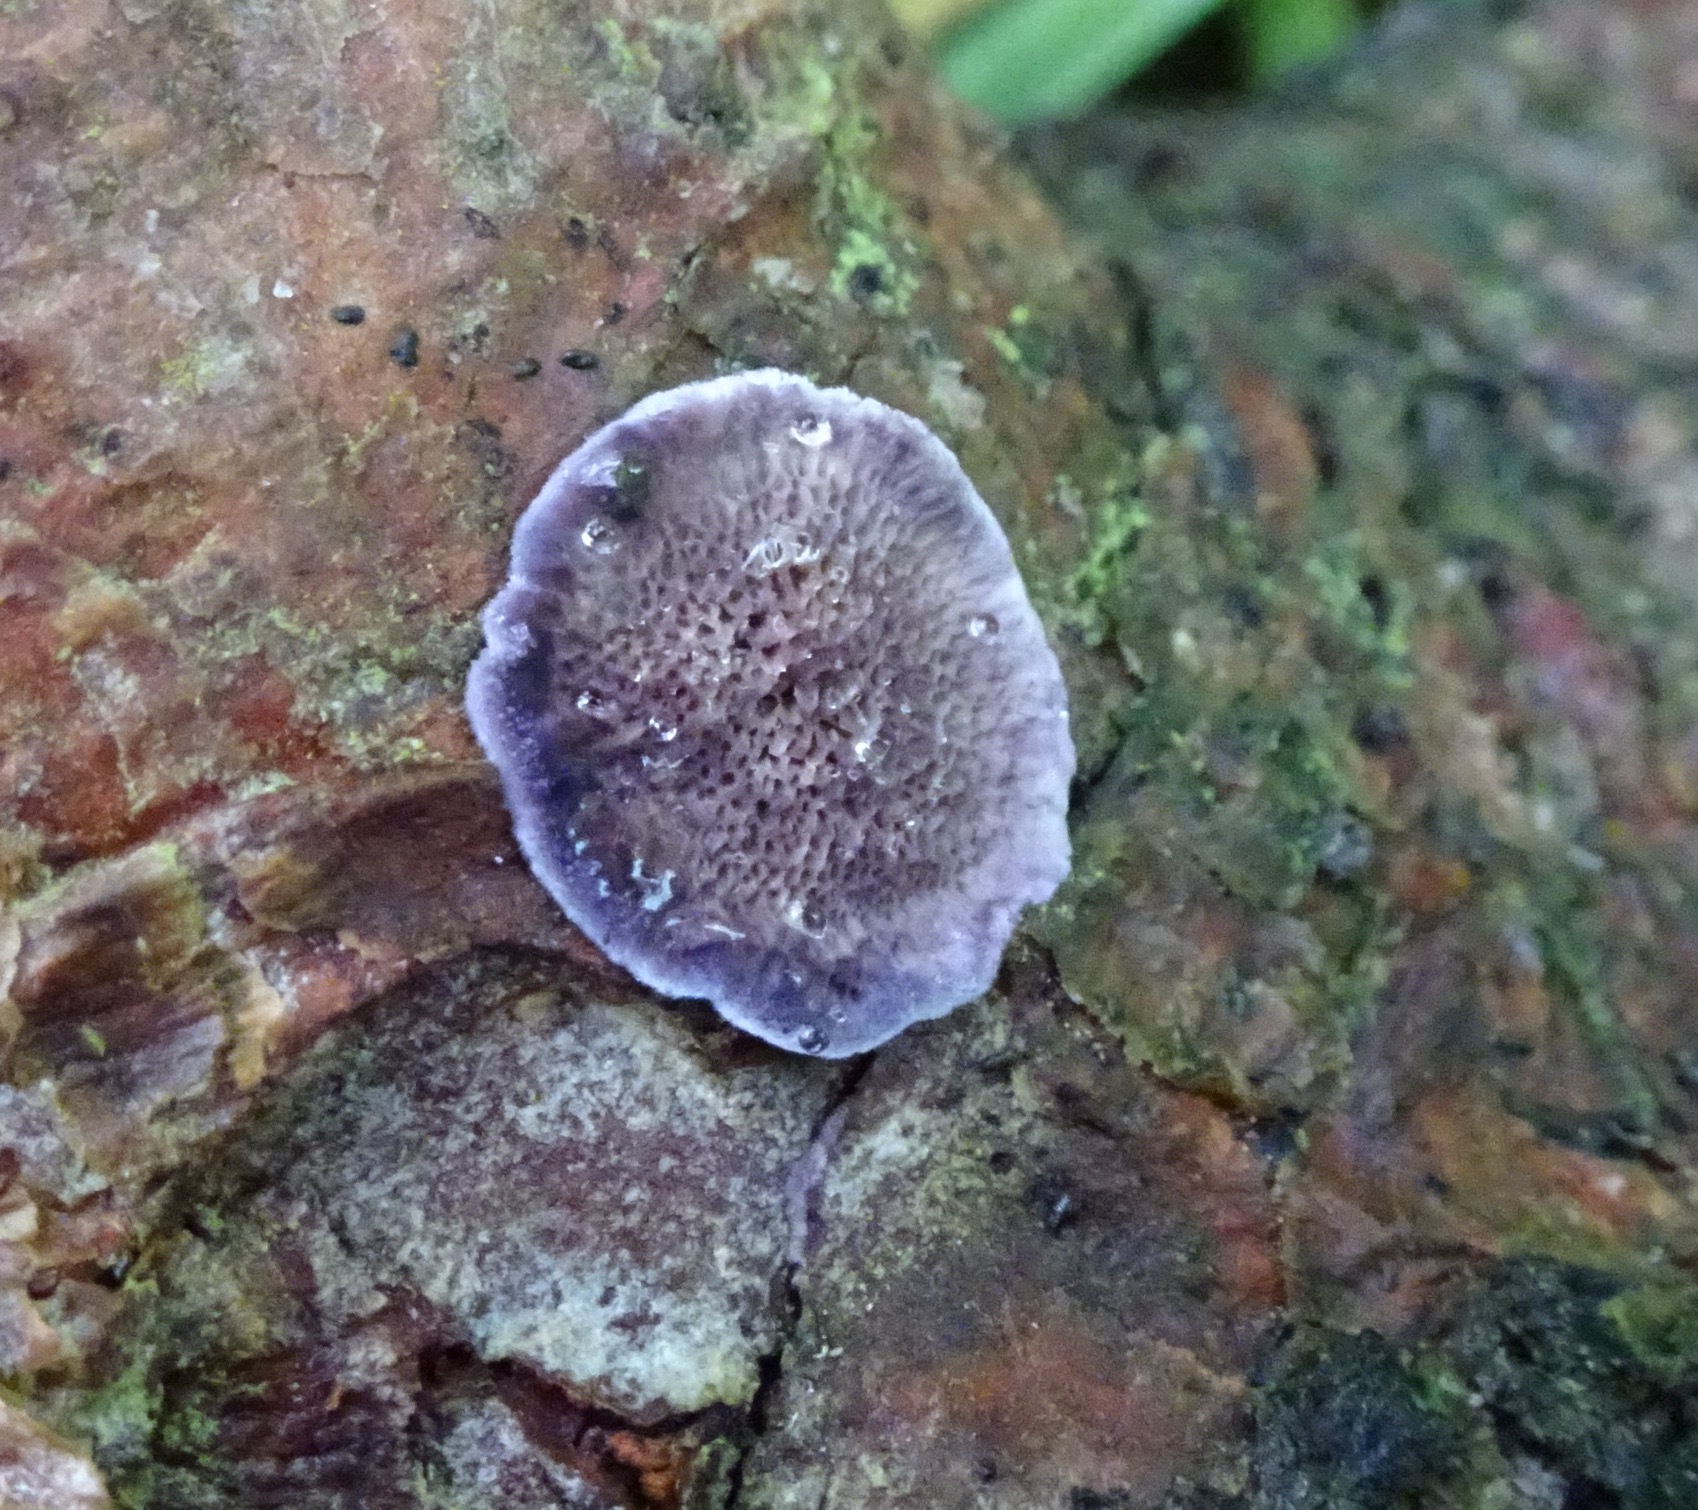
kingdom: Fungi
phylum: Basidiomycota
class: Agaricomycetes
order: Hymenochaetales
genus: Trichaptum
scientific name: Trichaptum abietinum
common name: Purplepore bracket
